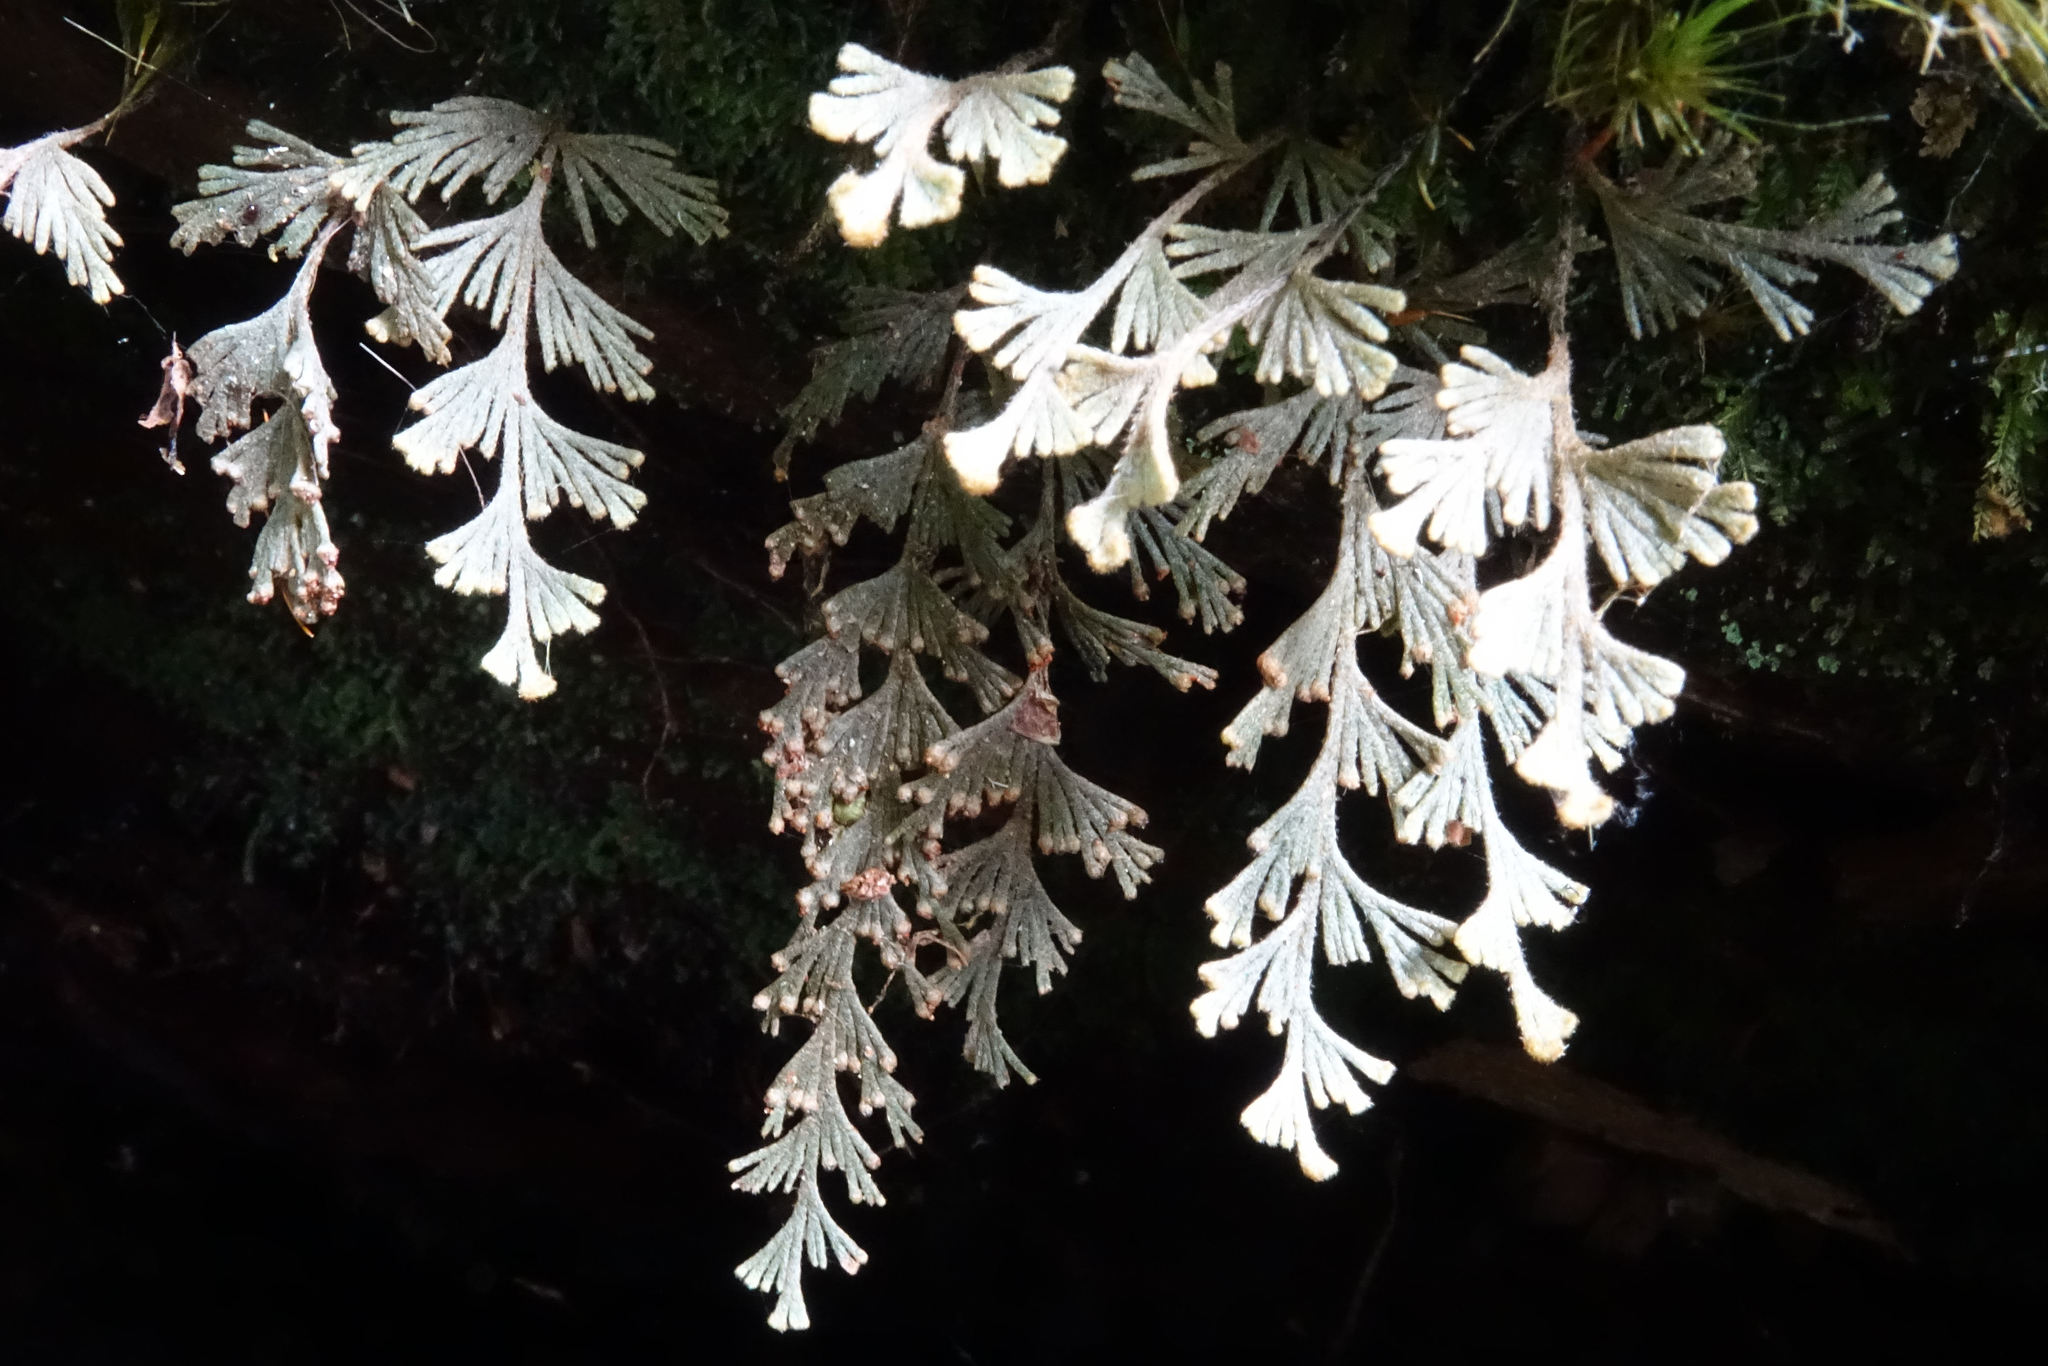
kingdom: Plantae
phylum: Tracheophyta
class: Polypodiopsida
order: Hymenophyllales
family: Hymenophyllaceae
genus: Hymenophyllum
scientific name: Hymenophyllum malingii
